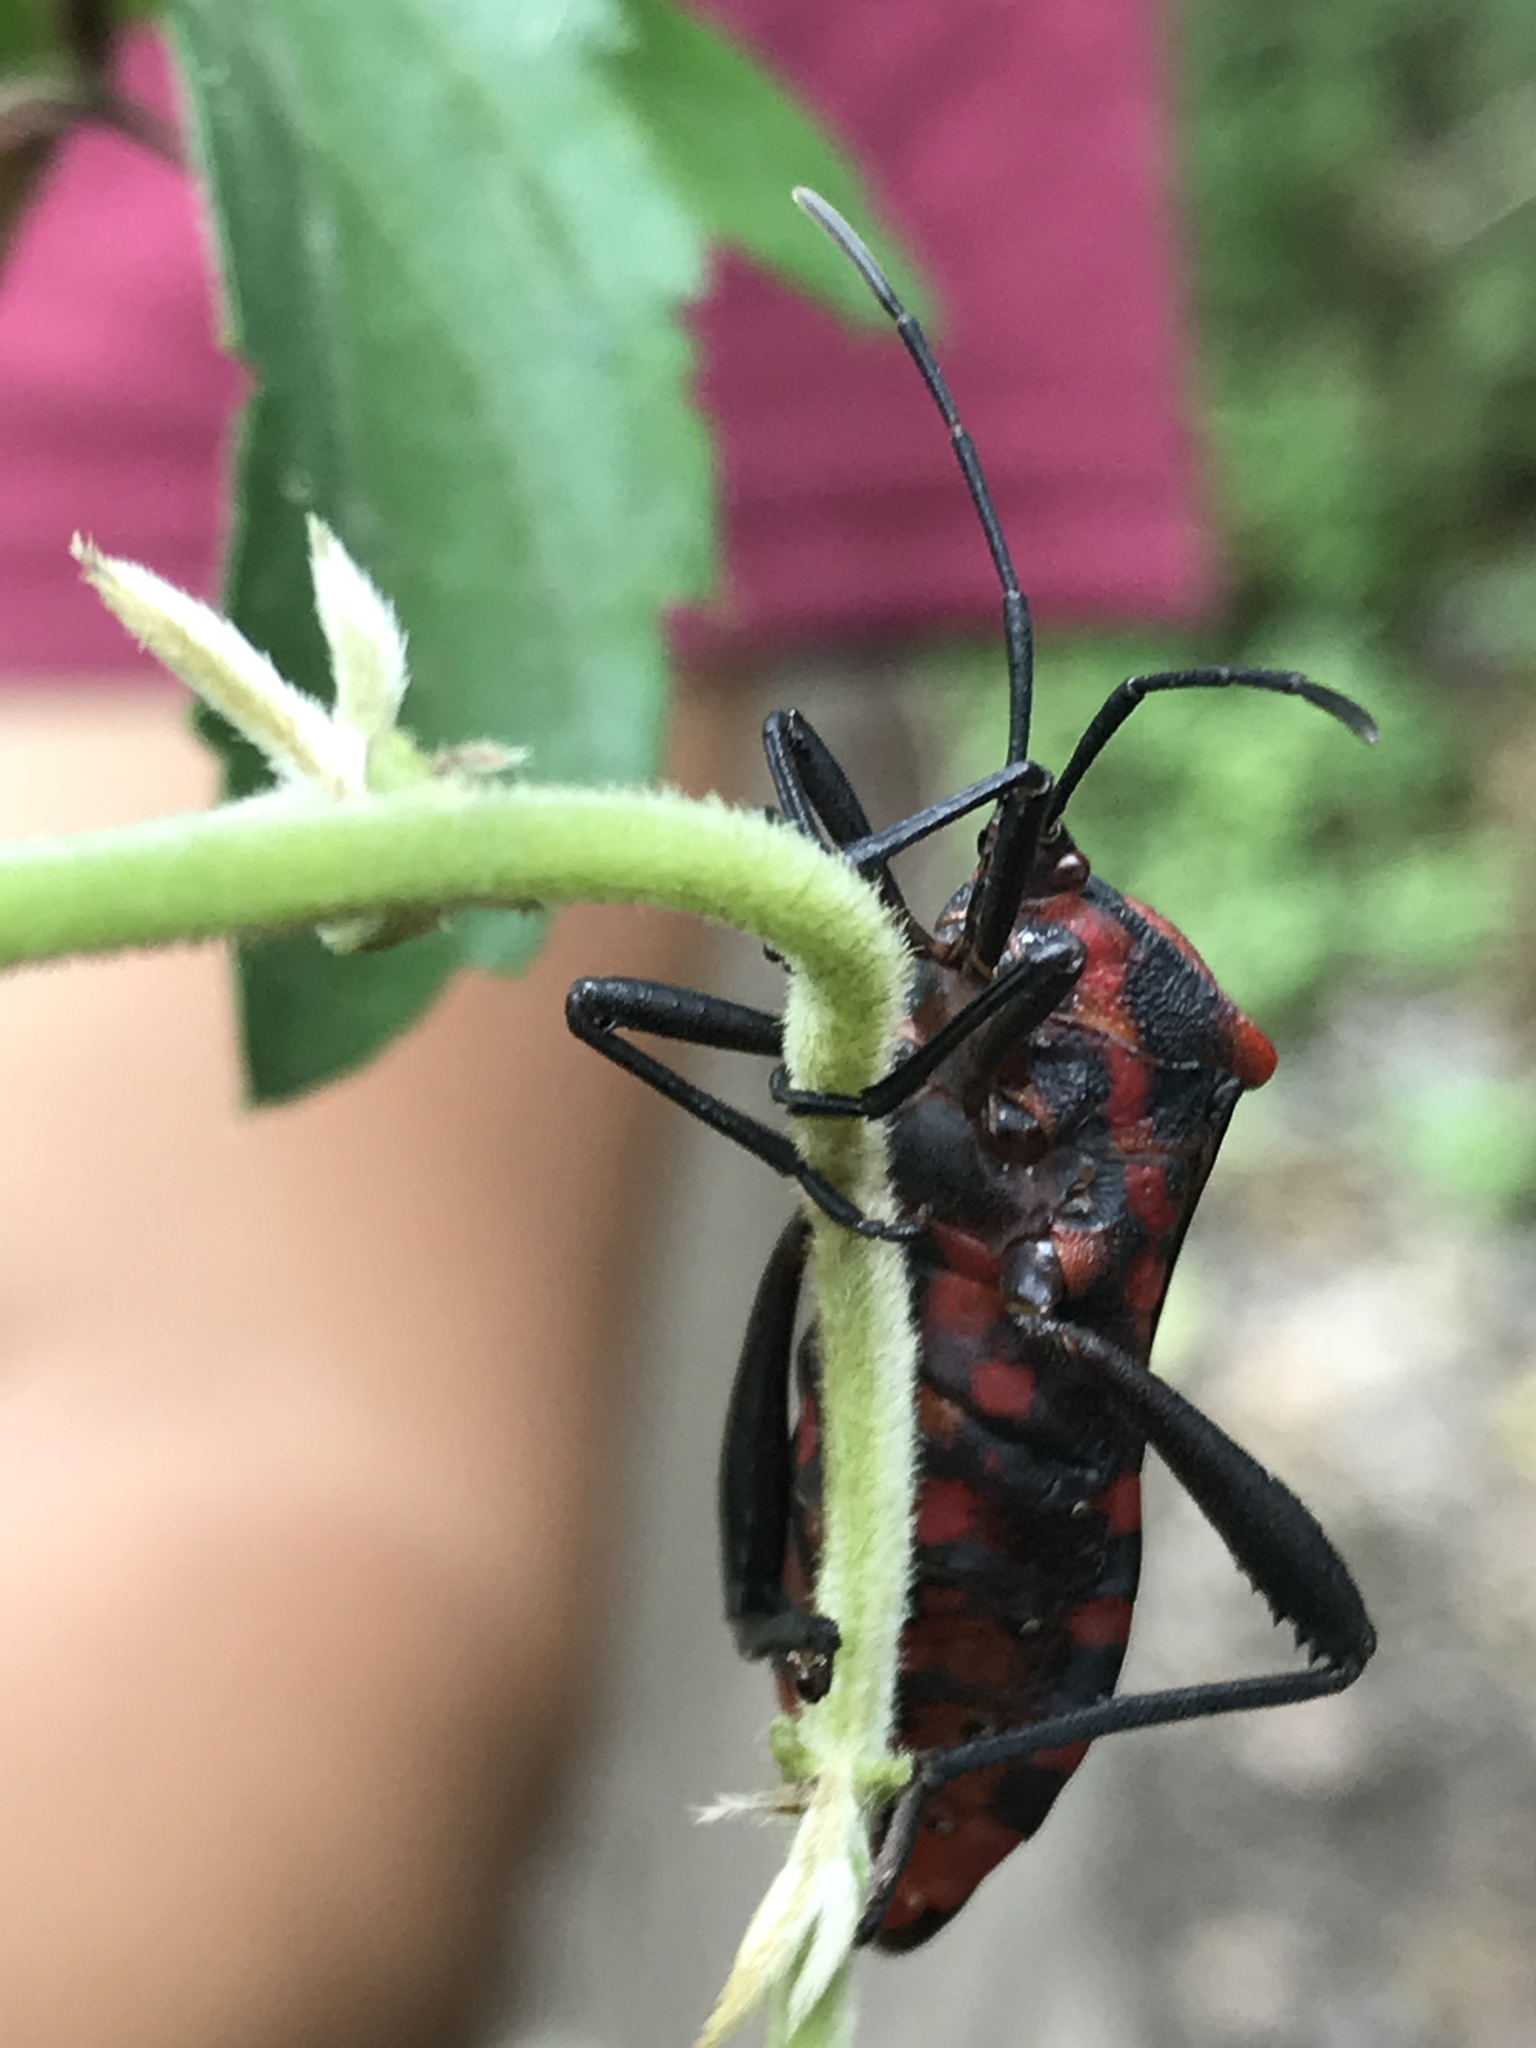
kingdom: Animalia
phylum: Arthropoda
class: Insecta
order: Hemiptera
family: Coreidae
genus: Piezogaster
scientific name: Piezogaster rubronotatus
